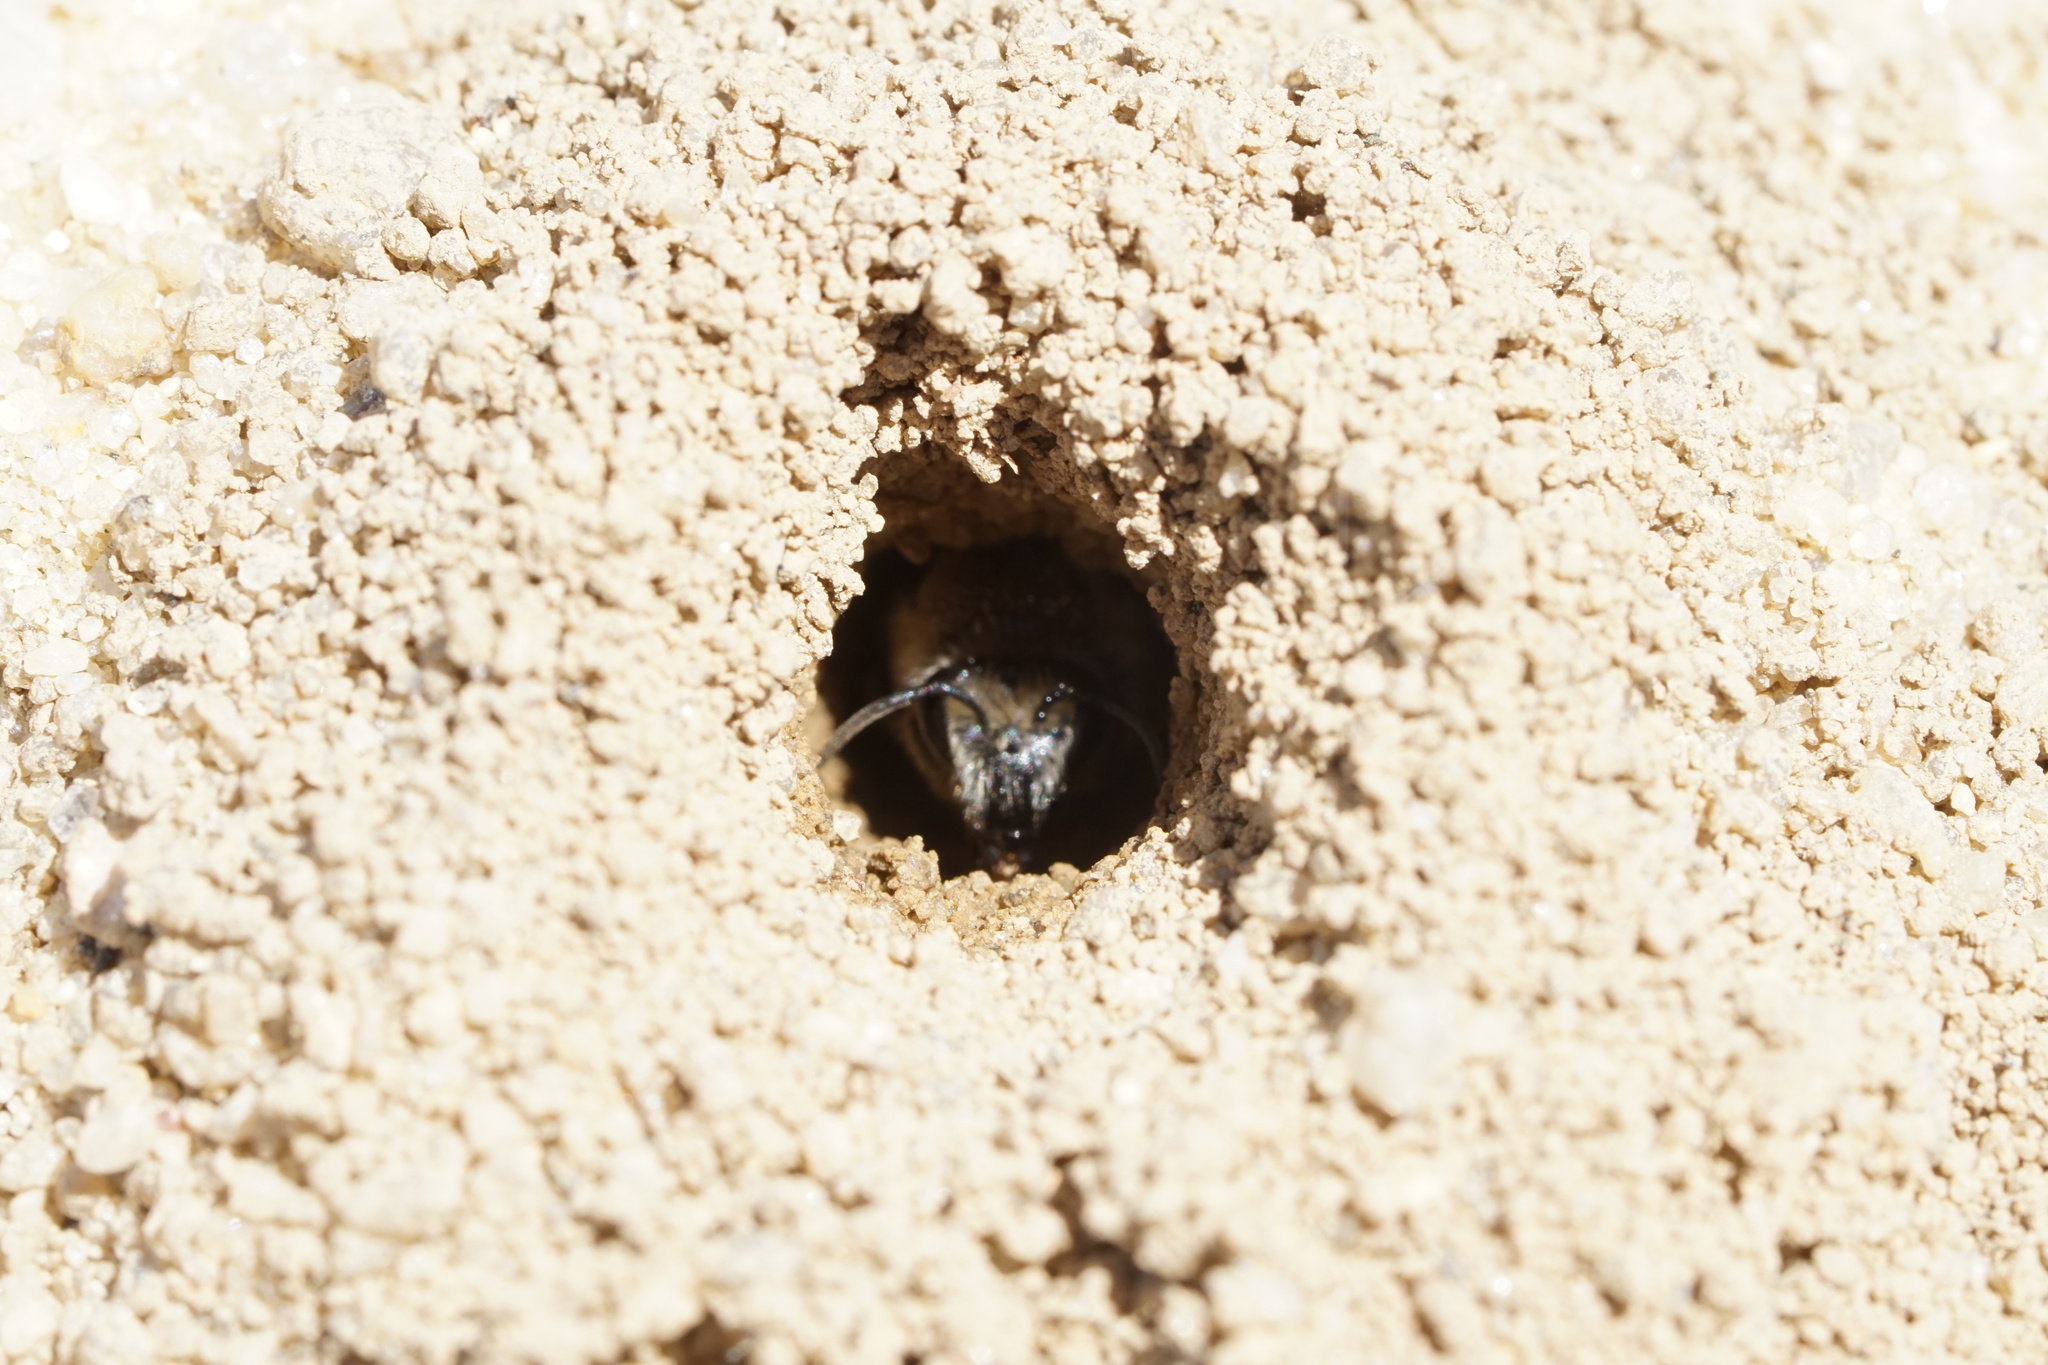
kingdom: Animalia
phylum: Arthropoda
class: Insecta
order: Hymenoptera
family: Colletidae
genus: Colletes
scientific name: Colletes validus
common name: Blueberry cellophane bee
